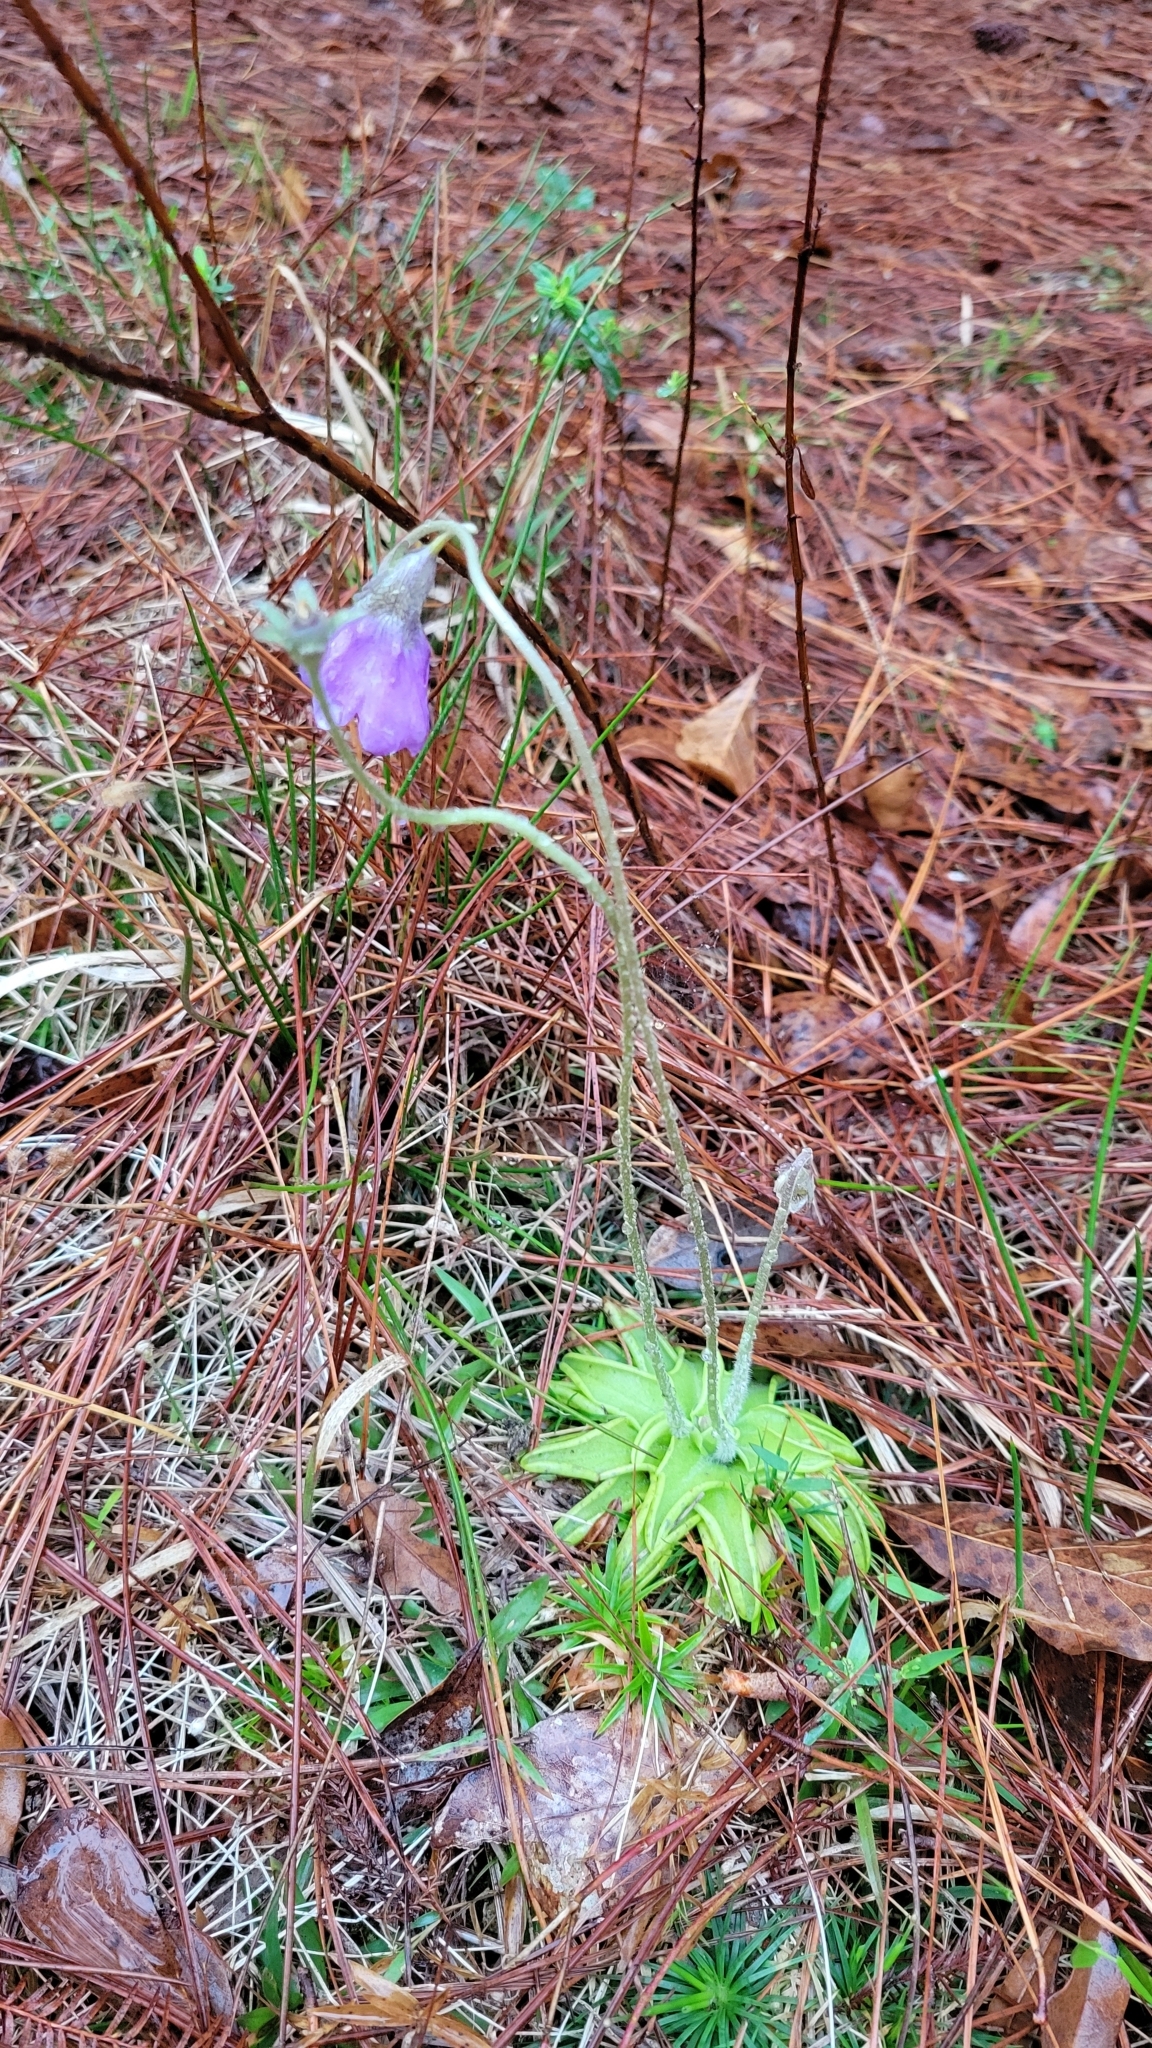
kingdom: Plantae
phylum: Tracheophyta
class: Magnoliopsida
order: Lamiales
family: Lentibulariaceae
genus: Pinguicula
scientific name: Pinguicula caerulea
